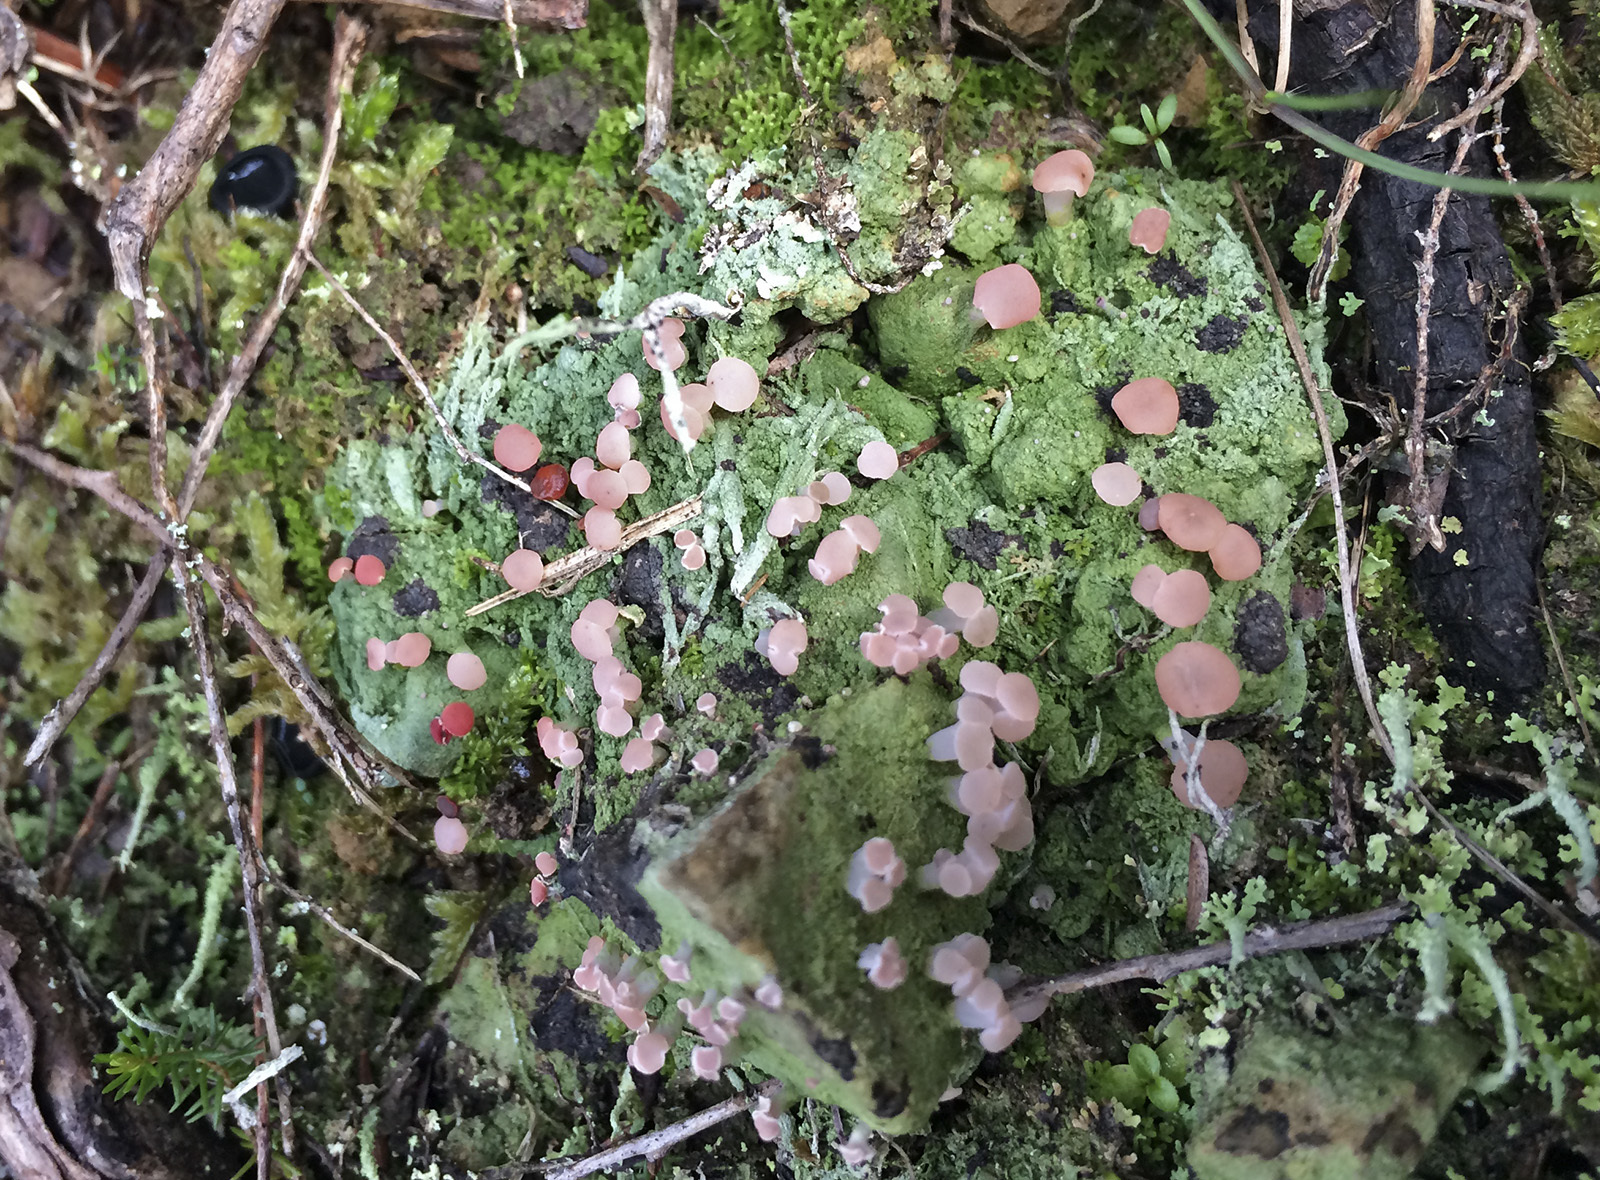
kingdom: Fungi
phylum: Ascomycota
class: Lecanoromycetes
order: Baeomycetales
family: Baeomycetaceae
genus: Baeomyces
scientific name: Baeomyces heteromorphus
